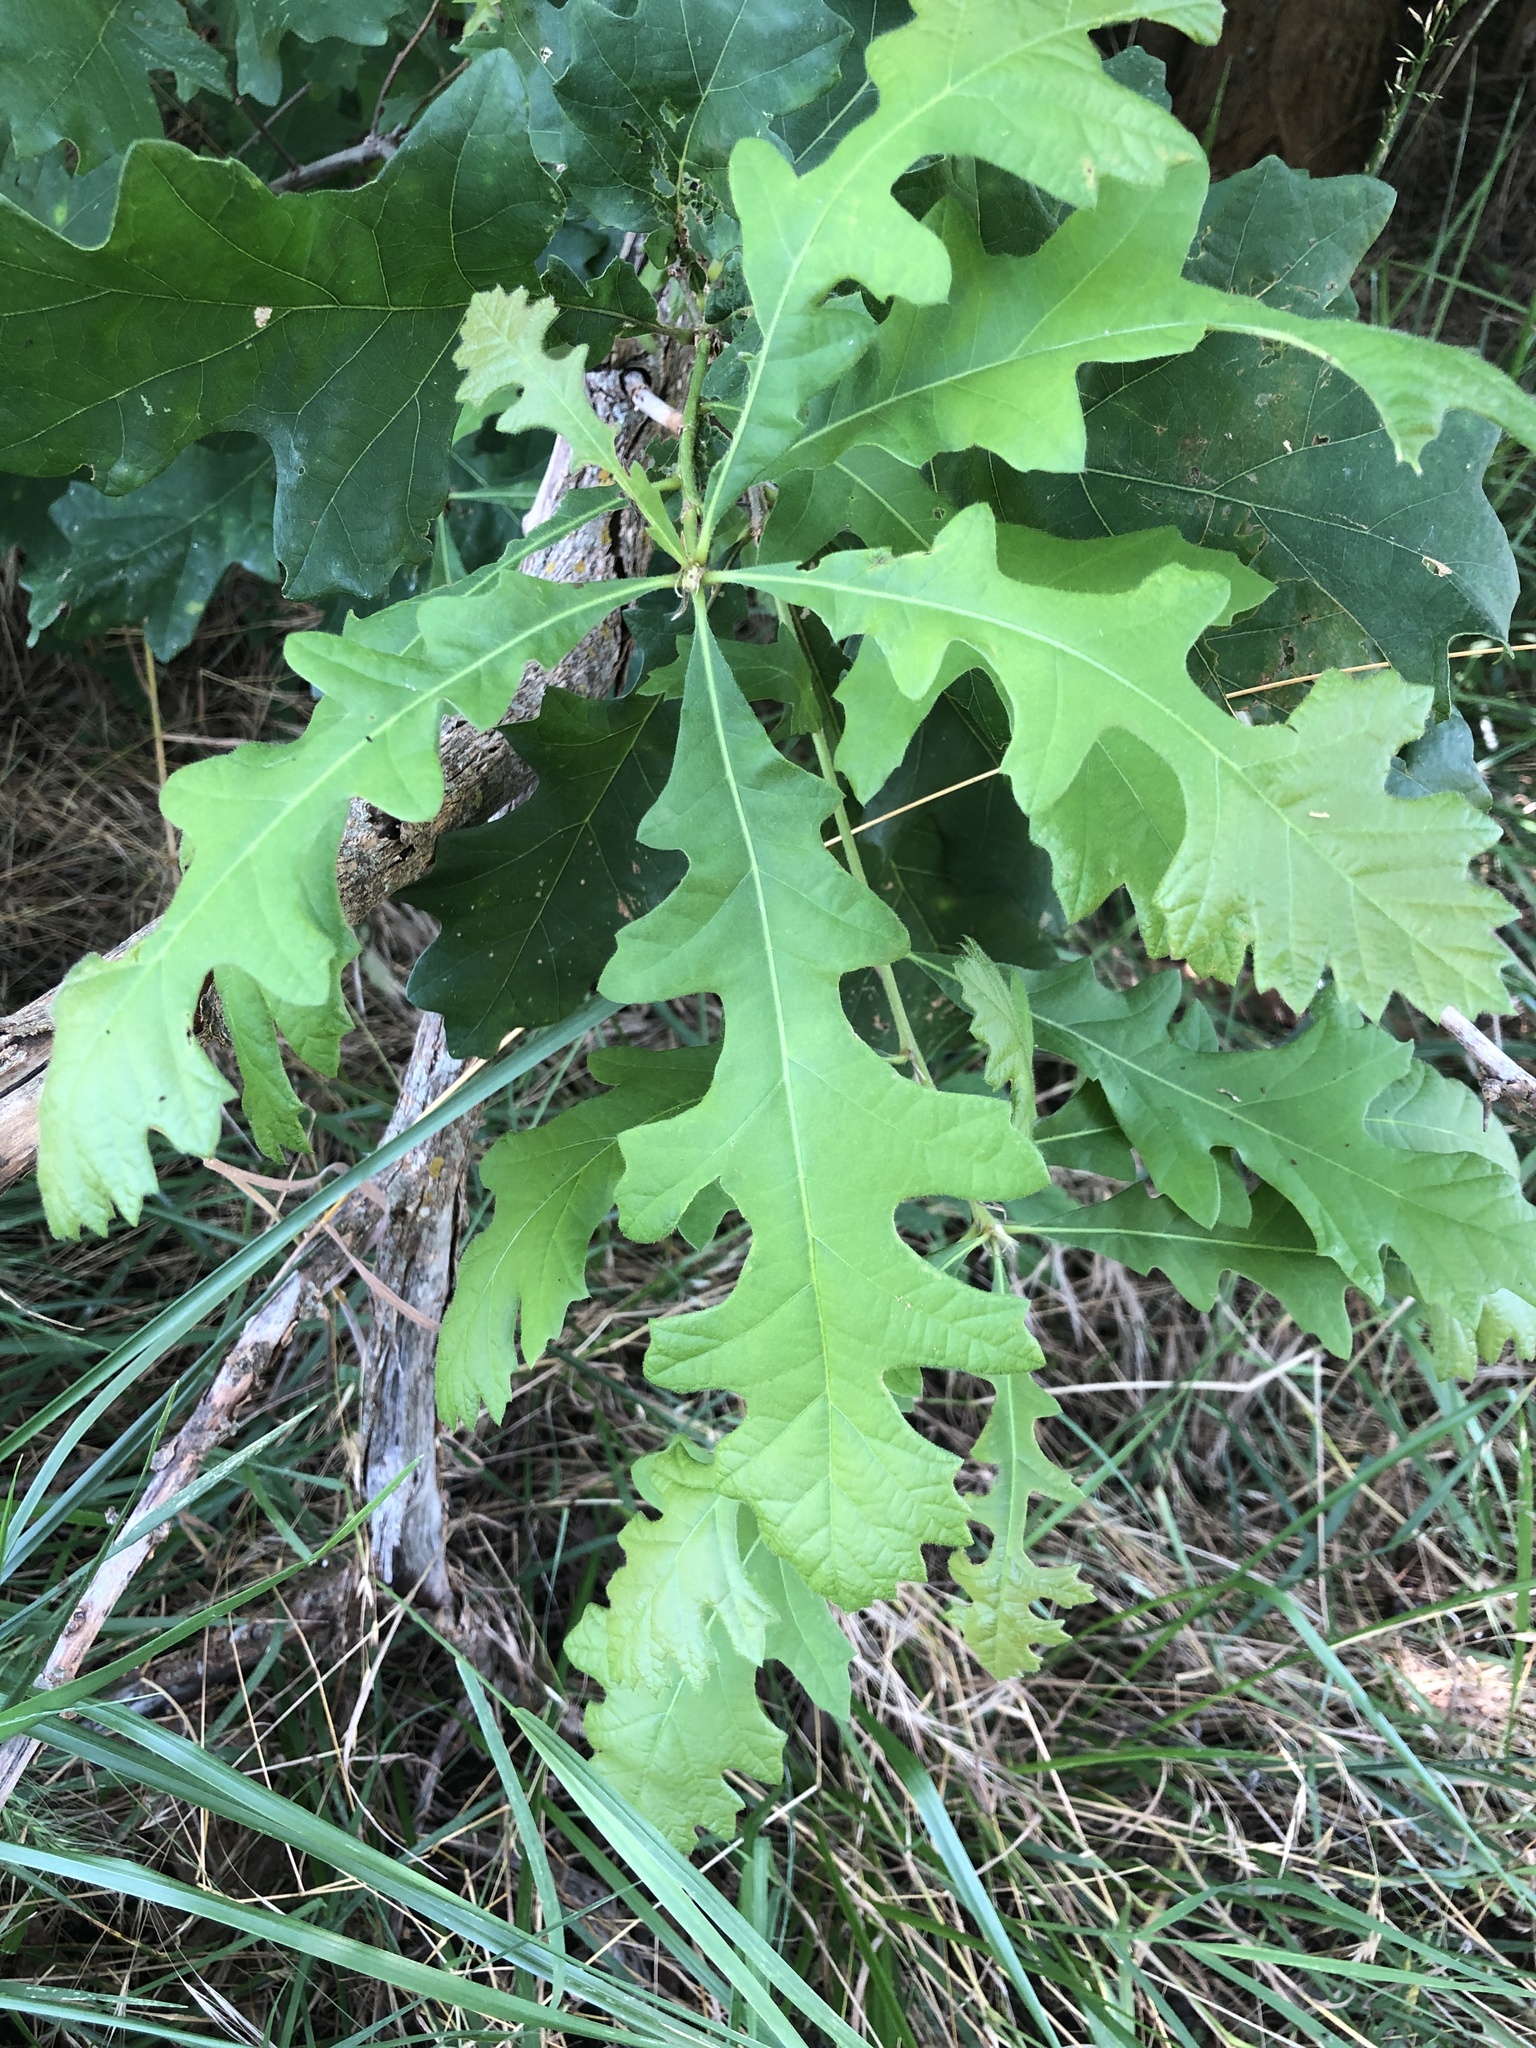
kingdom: Plantae
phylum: Tracheophyta
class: Magnoliopsida
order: Fagales
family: Fagaceae
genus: Quercus
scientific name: Quercus macrocarpa
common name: Bur oak
